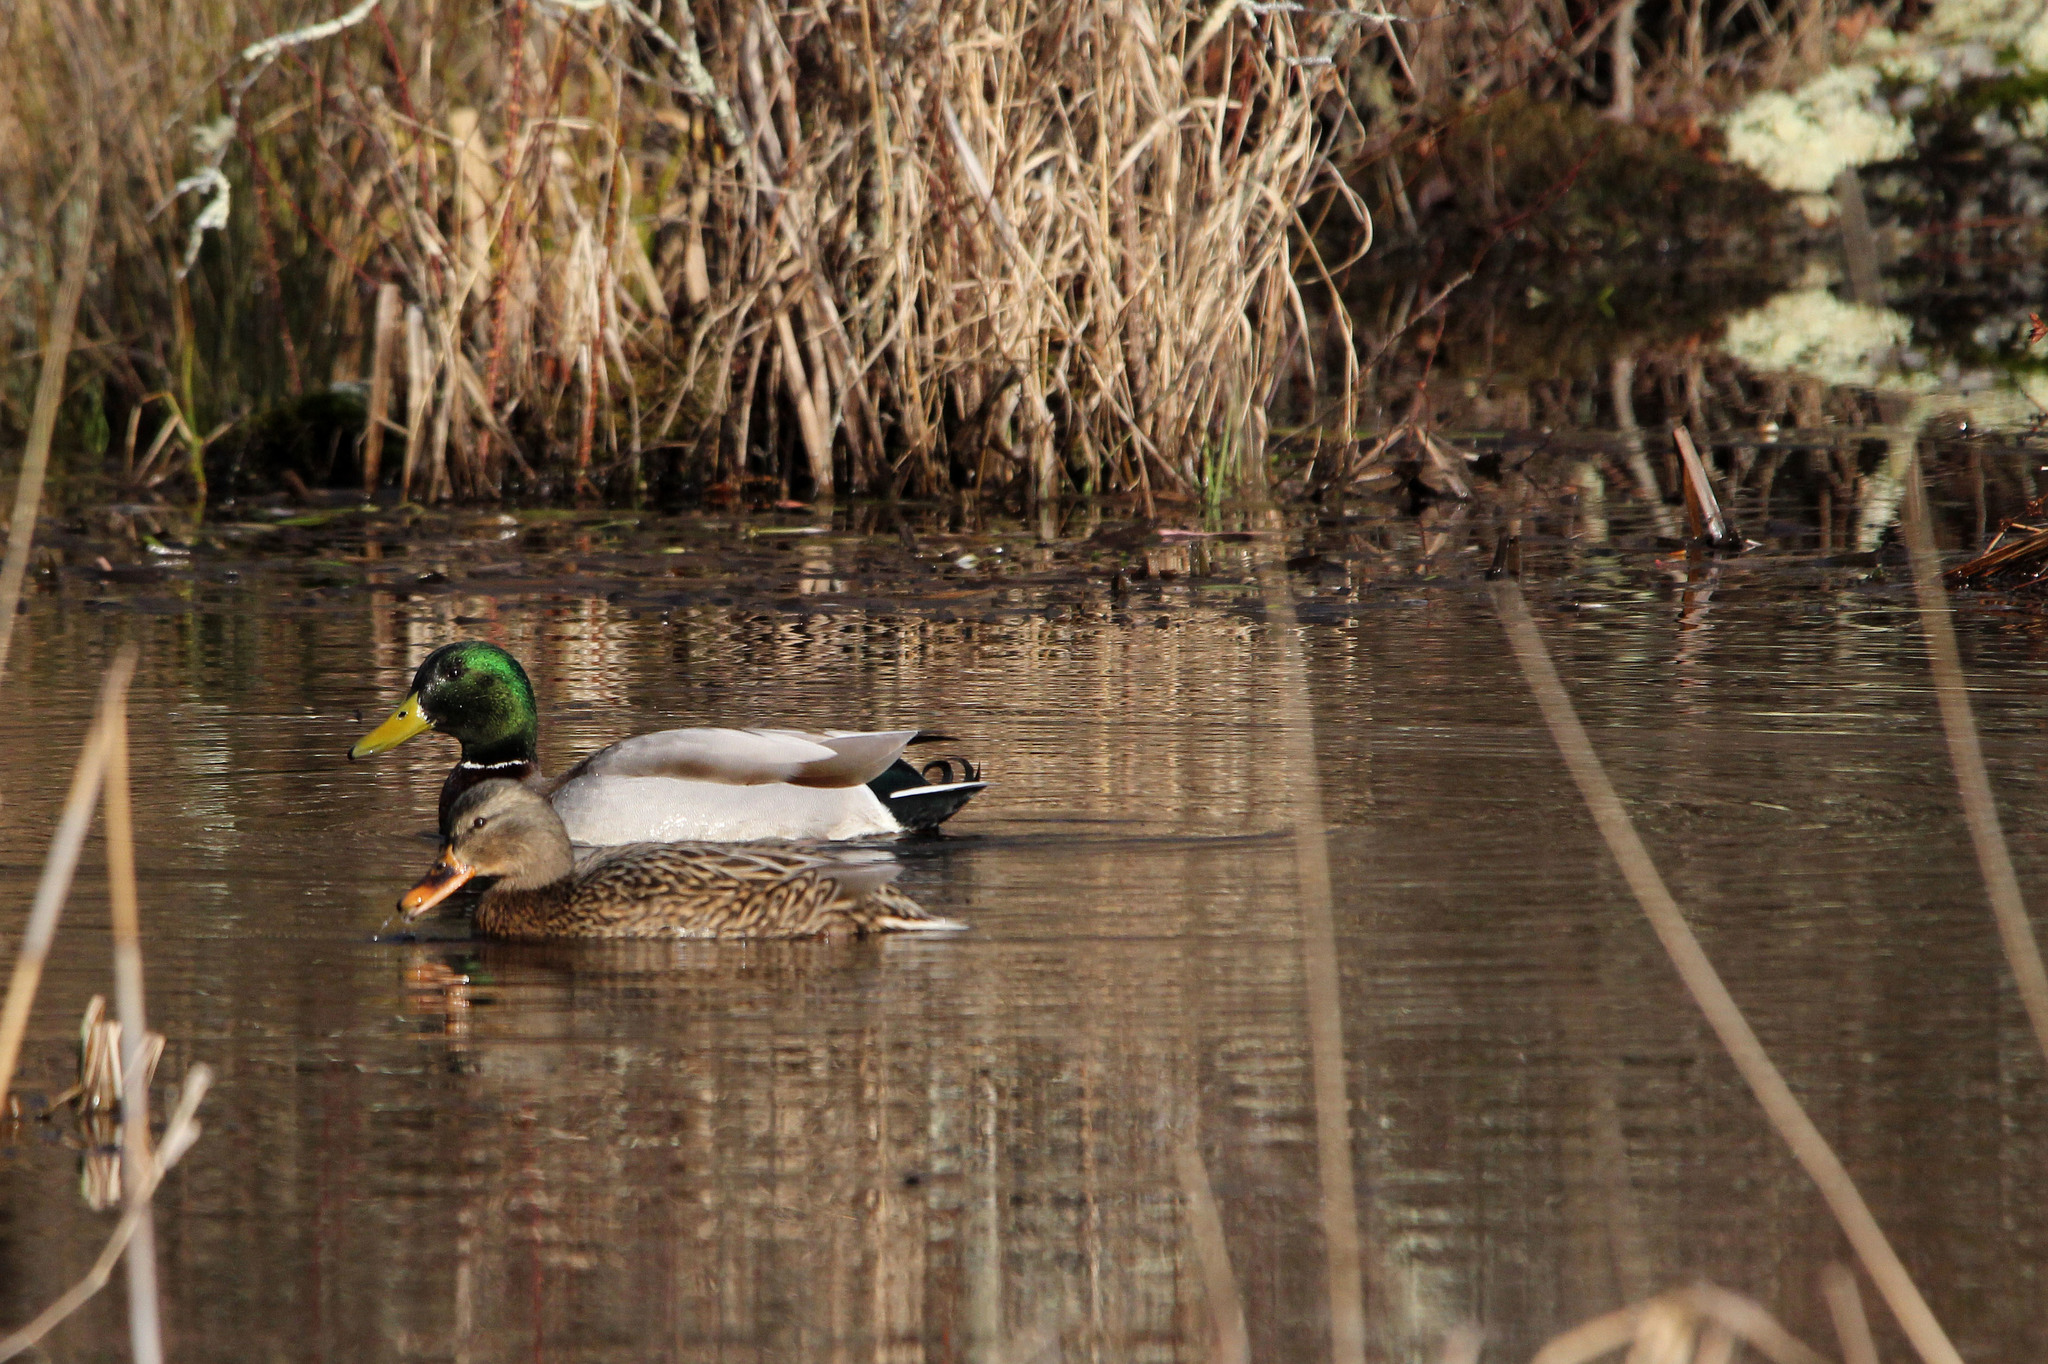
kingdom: Animalia
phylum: Chordata
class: Aves
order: Anseriformes
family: Anatidae
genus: Anas
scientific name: Anas platyrhynchos
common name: Mallard
